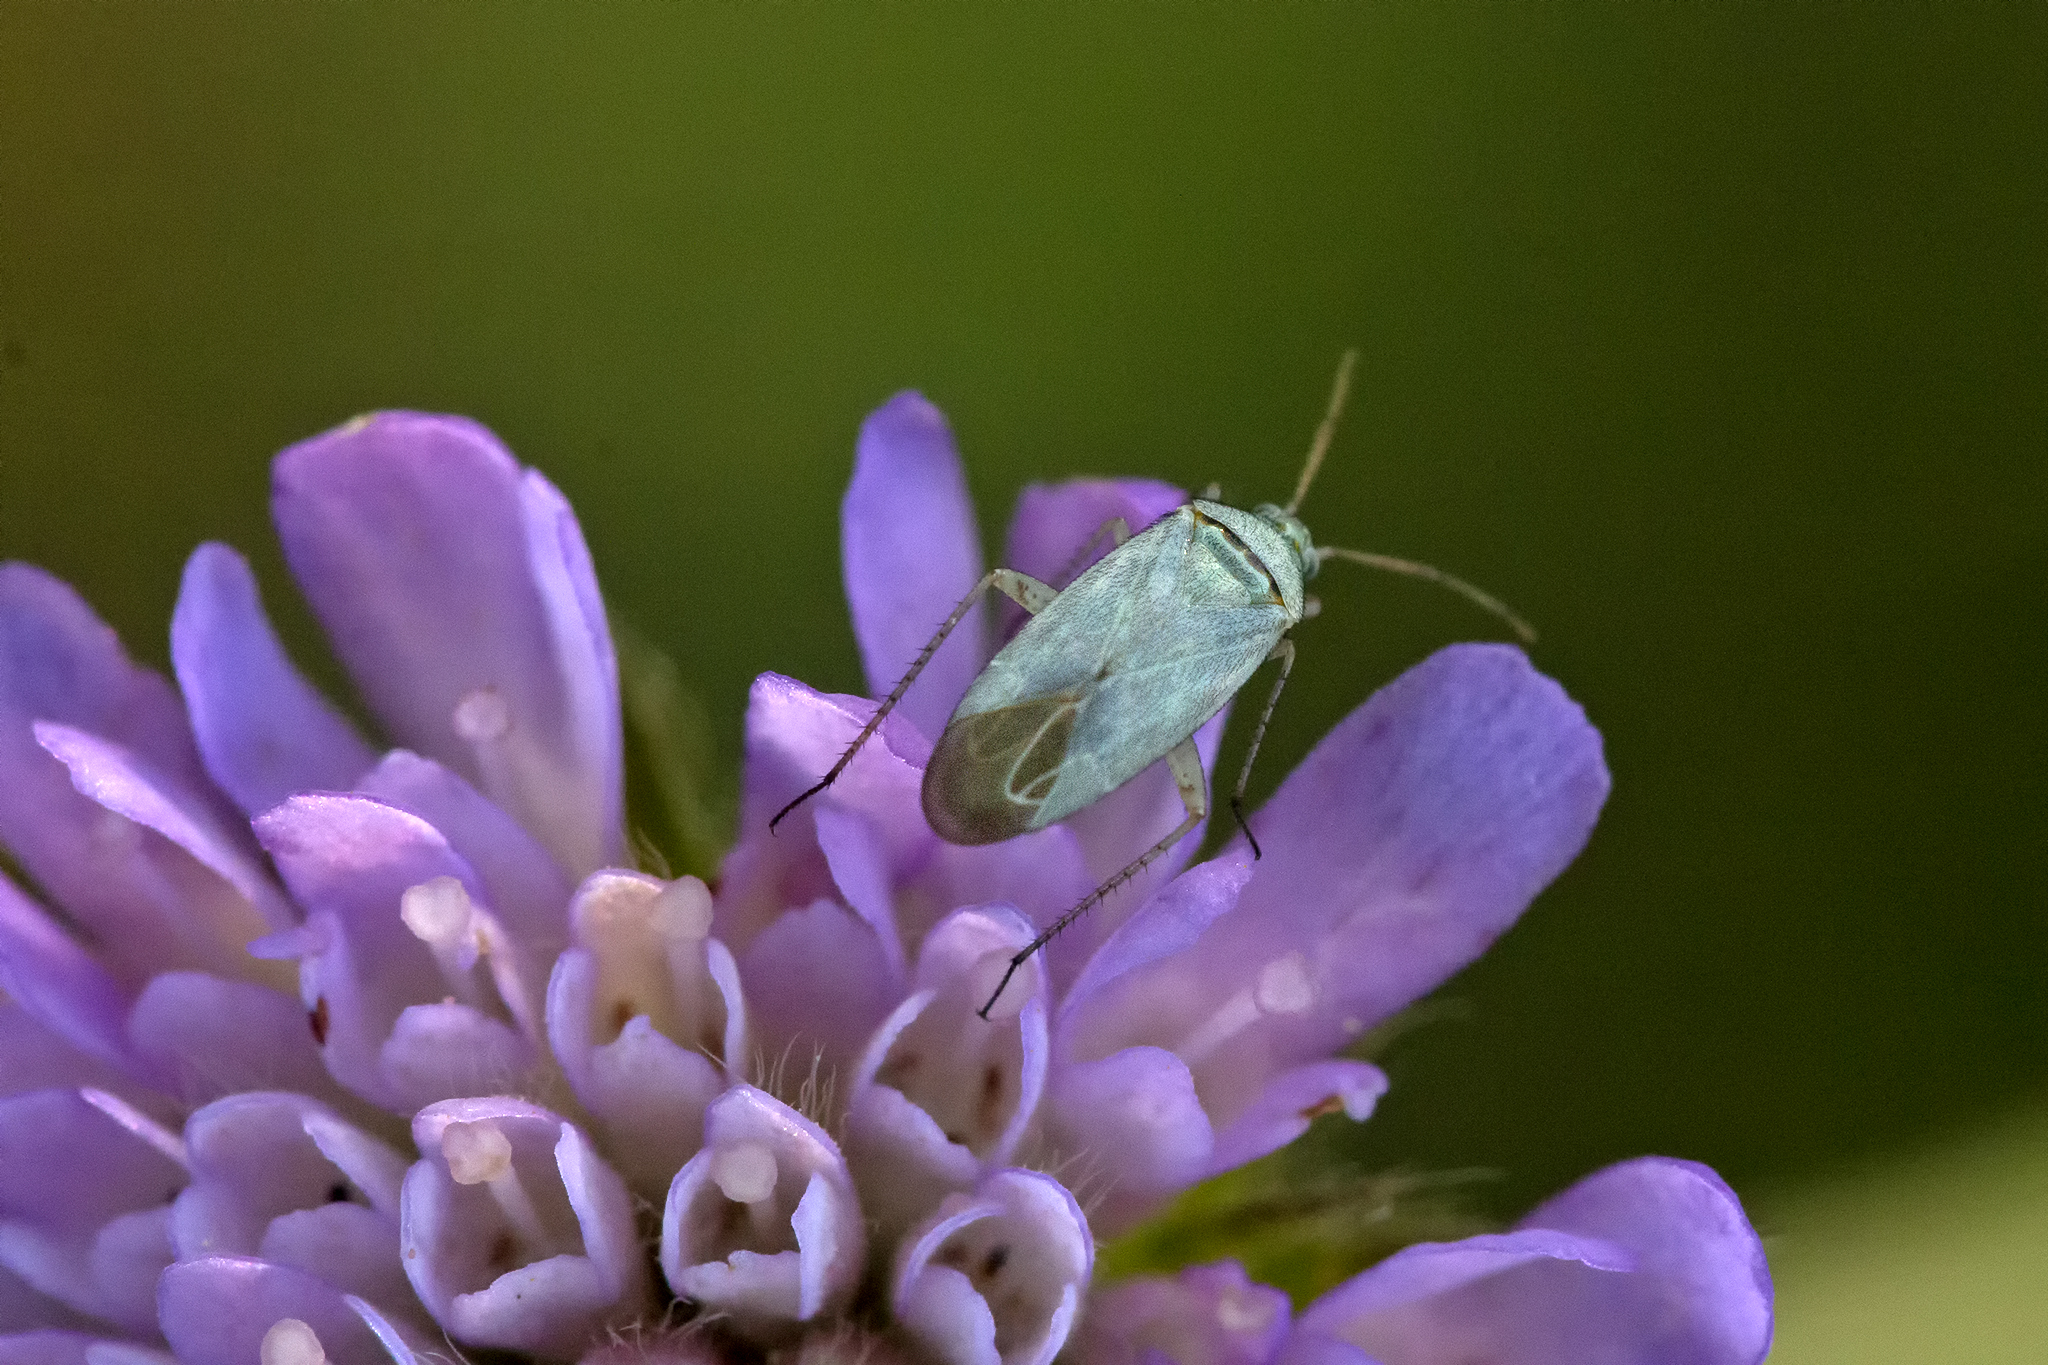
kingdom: Animalia
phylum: Arthropoda
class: Insecta
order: Hemiptera
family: Miridae
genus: Placochilus
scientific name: Placochilus seladonicus
